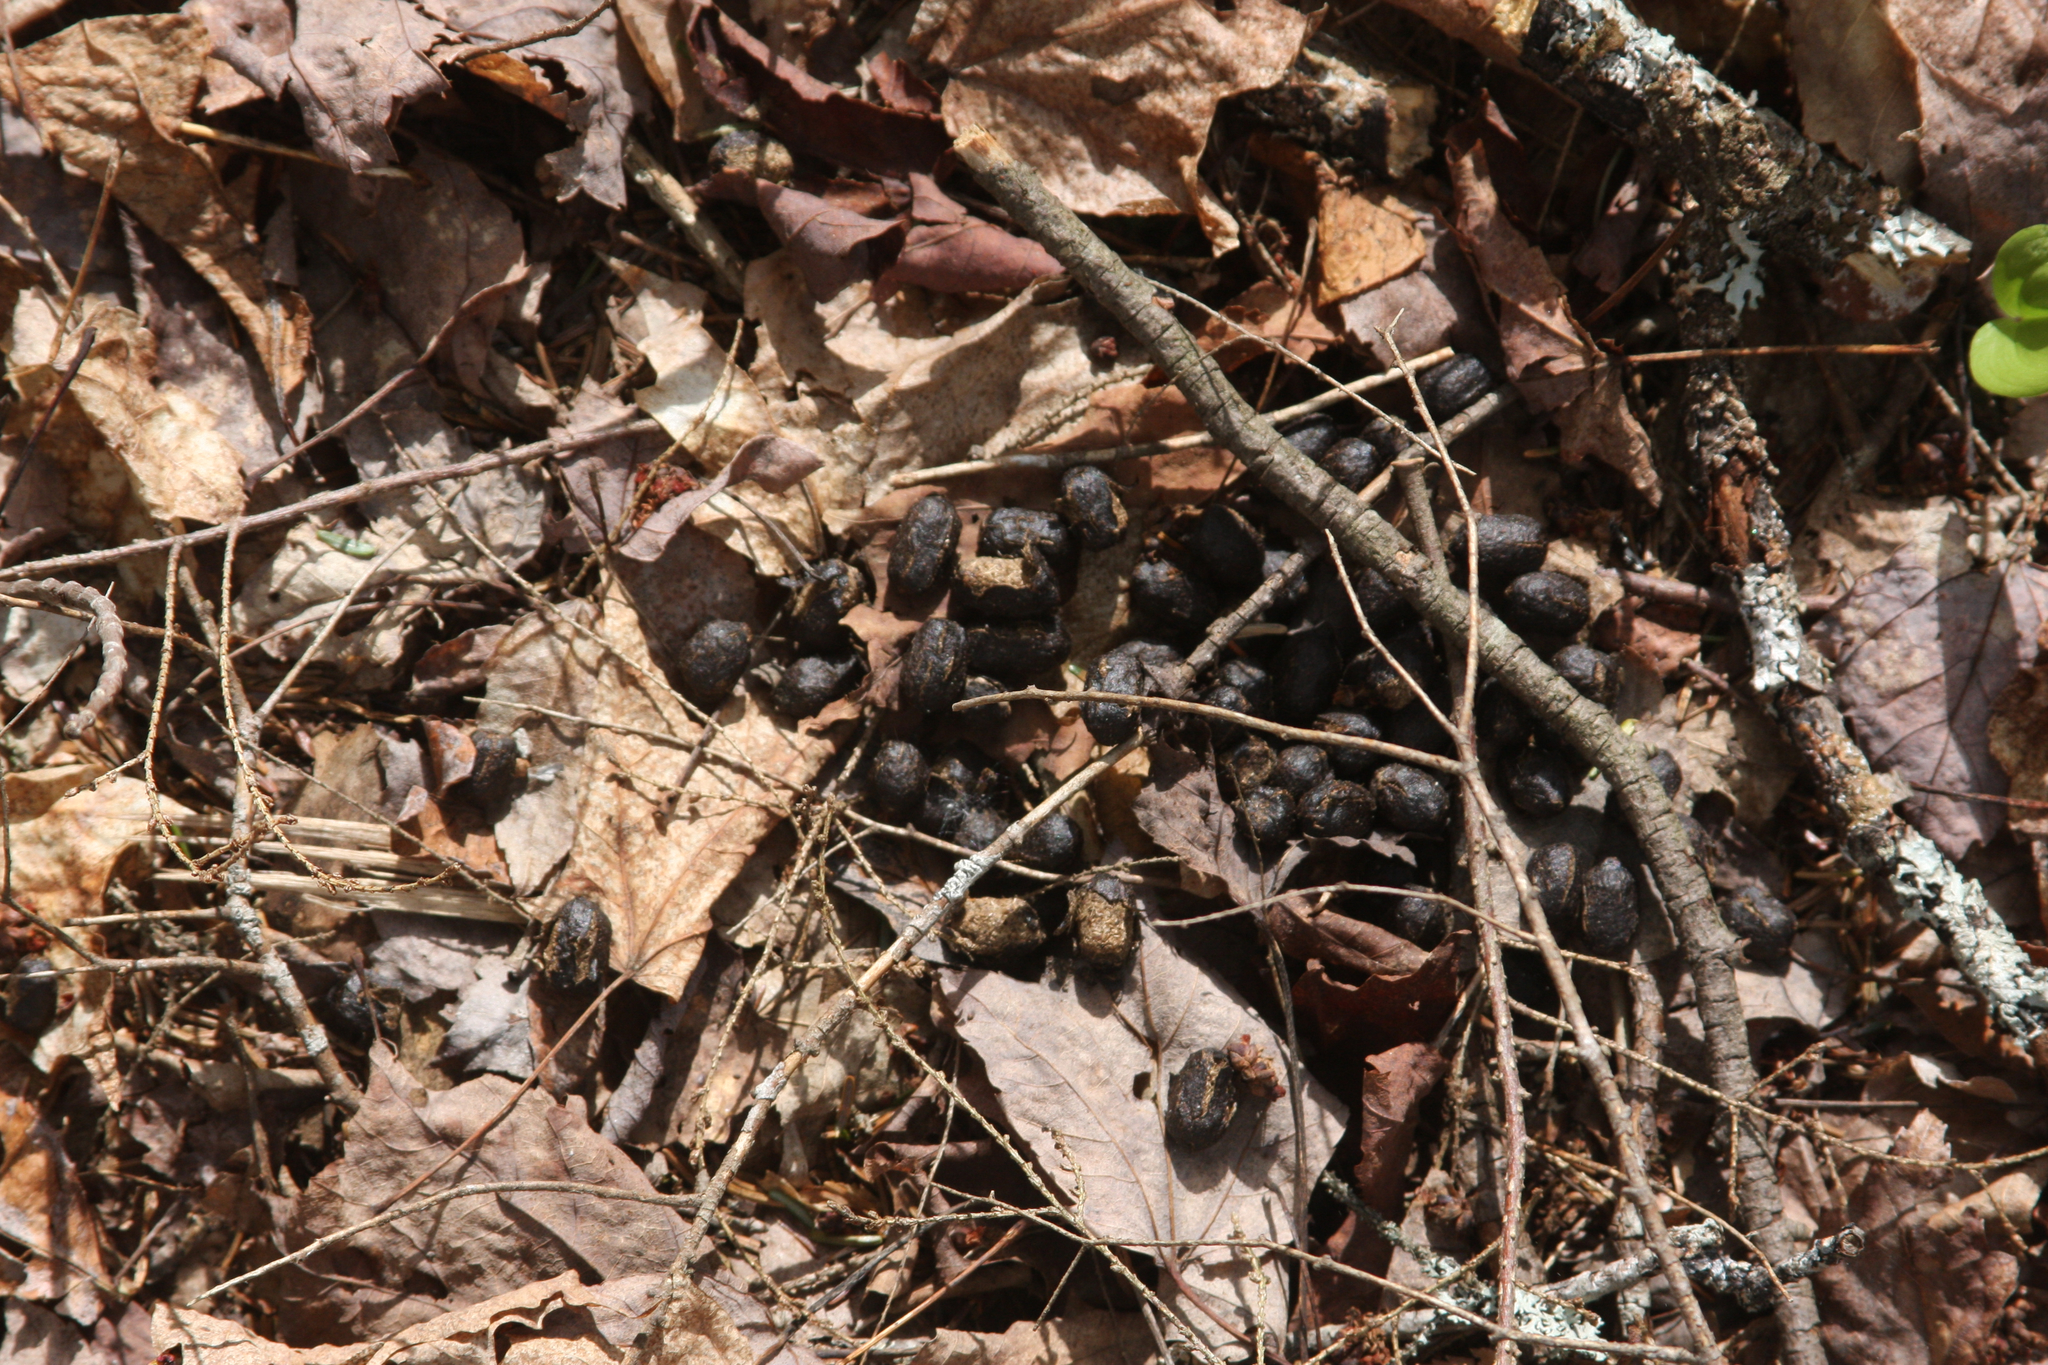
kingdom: Animalia
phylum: Chordata
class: Mammalia
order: Artiodactyla
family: Cervidae
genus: Odocoileus
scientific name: Odocoileus virginianus
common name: White-tailed deer
